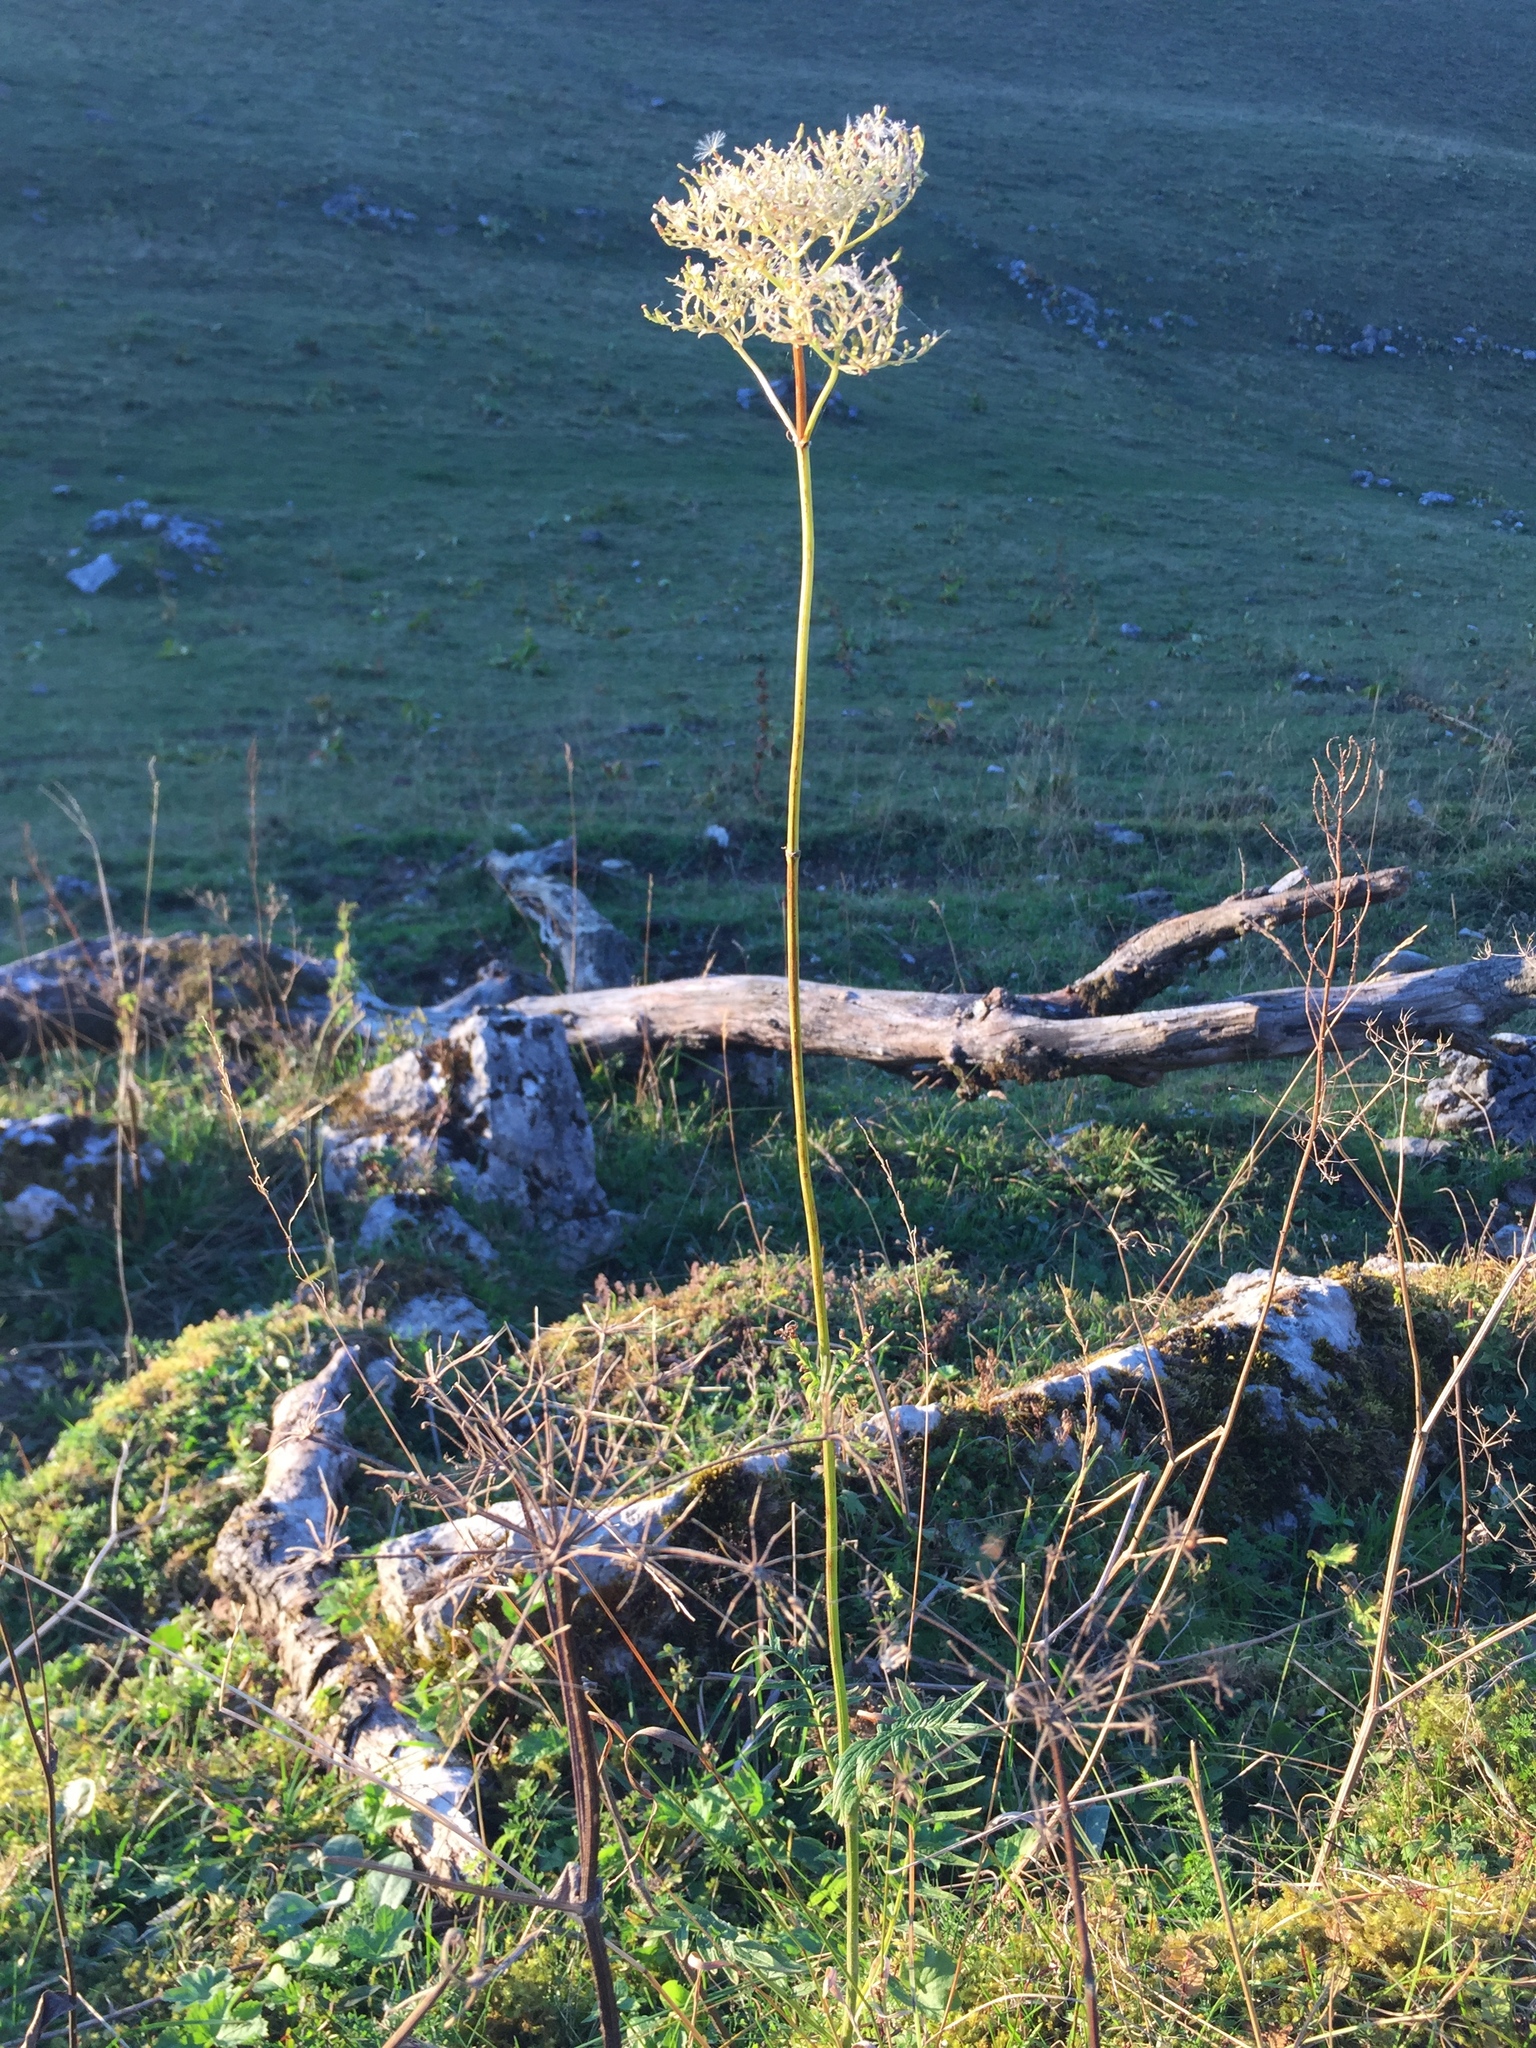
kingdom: Plantae
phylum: Tracheophyta
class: Magnoliopsida
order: Dipsacales
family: Caprifoliaceae
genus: Valeriana
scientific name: Valeriana officinalis
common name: Common valerian
